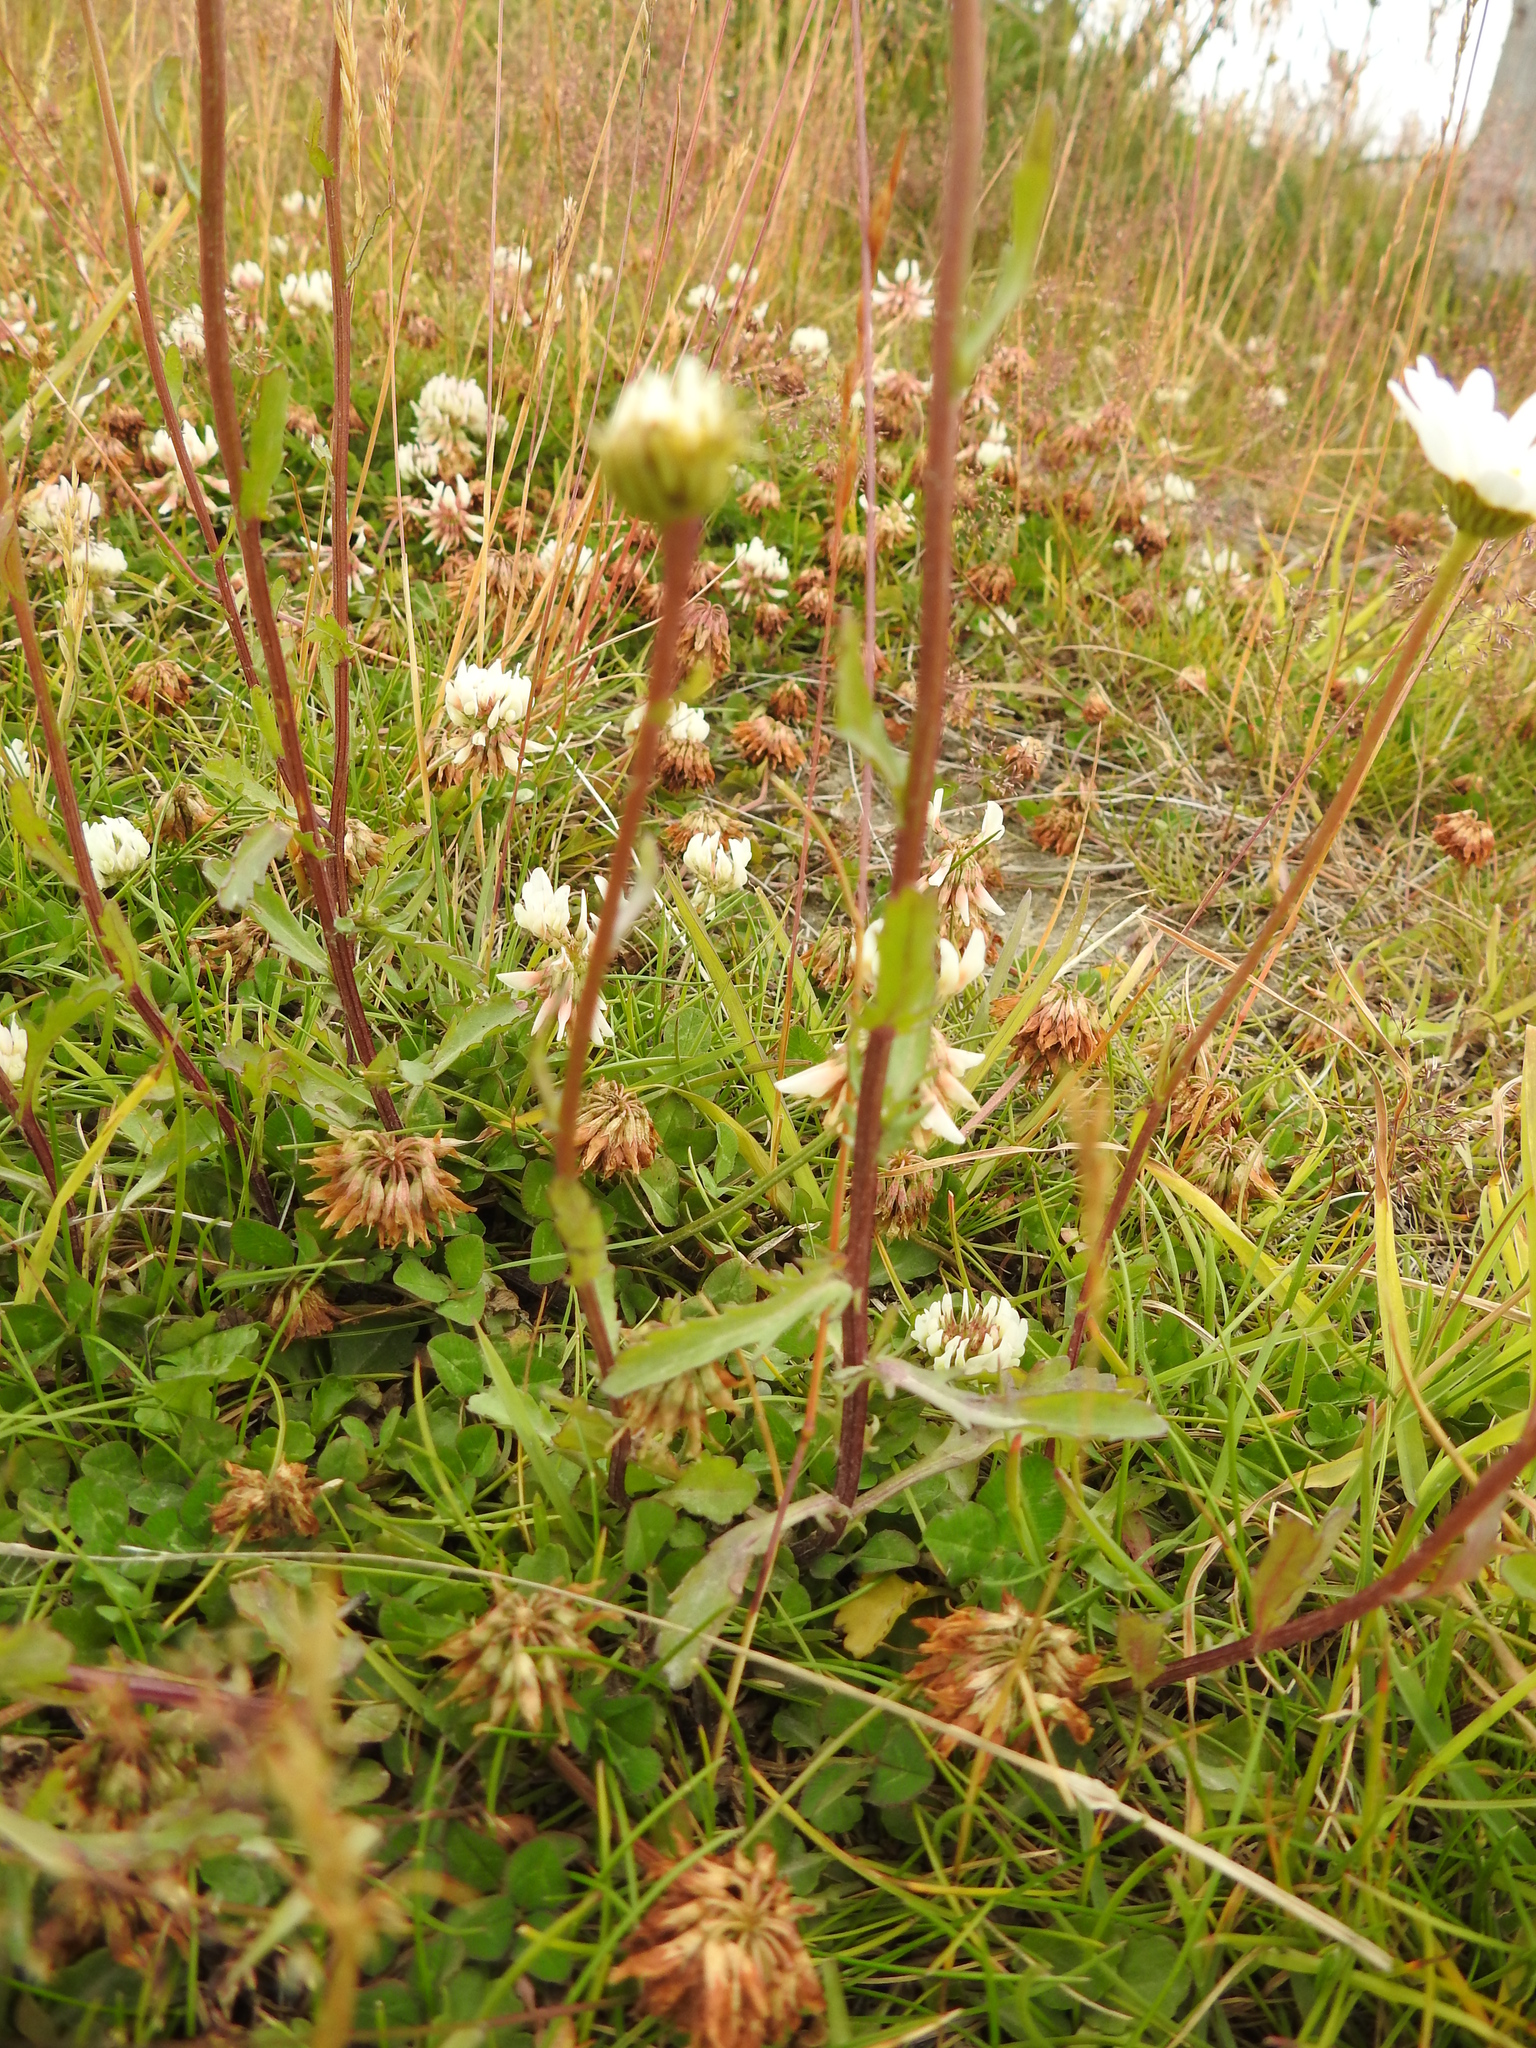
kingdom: Plantae
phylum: Tracheophyta
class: Magnoliopsida
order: Asterales
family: Asteraceae
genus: Leucanthemum
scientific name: Leucanthemum vulgare
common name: Oxeye daisy
